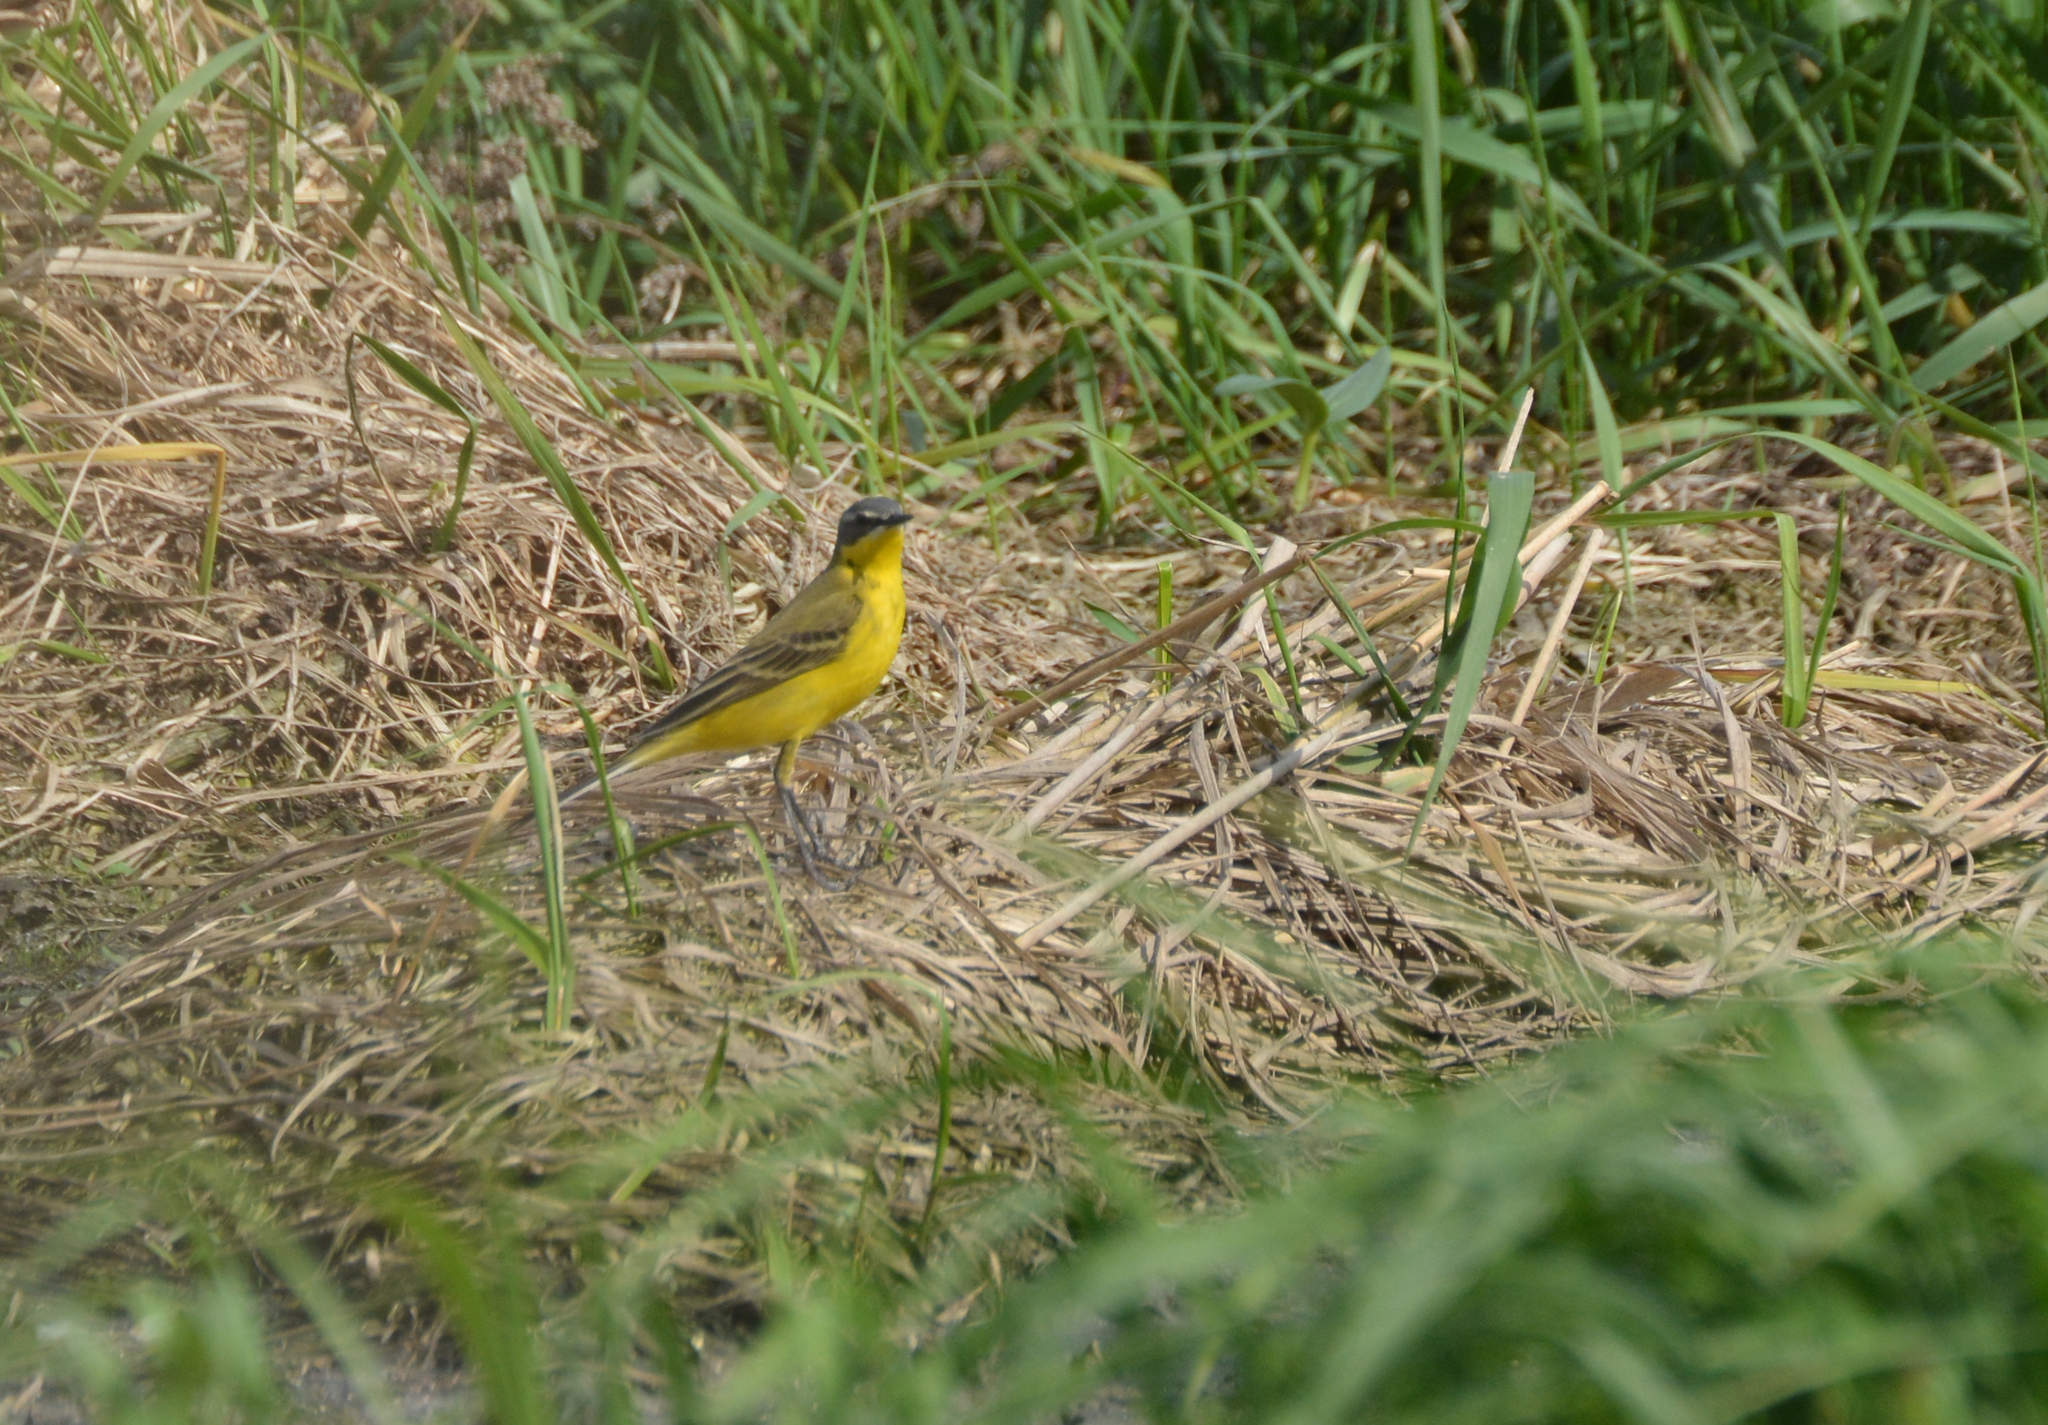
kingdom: Animalia
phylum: Chordata
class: Aves
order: Passeriformes
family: Motacillidae
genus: Motacilla
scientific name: Motacilla flava
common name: Western yellow wagtail
